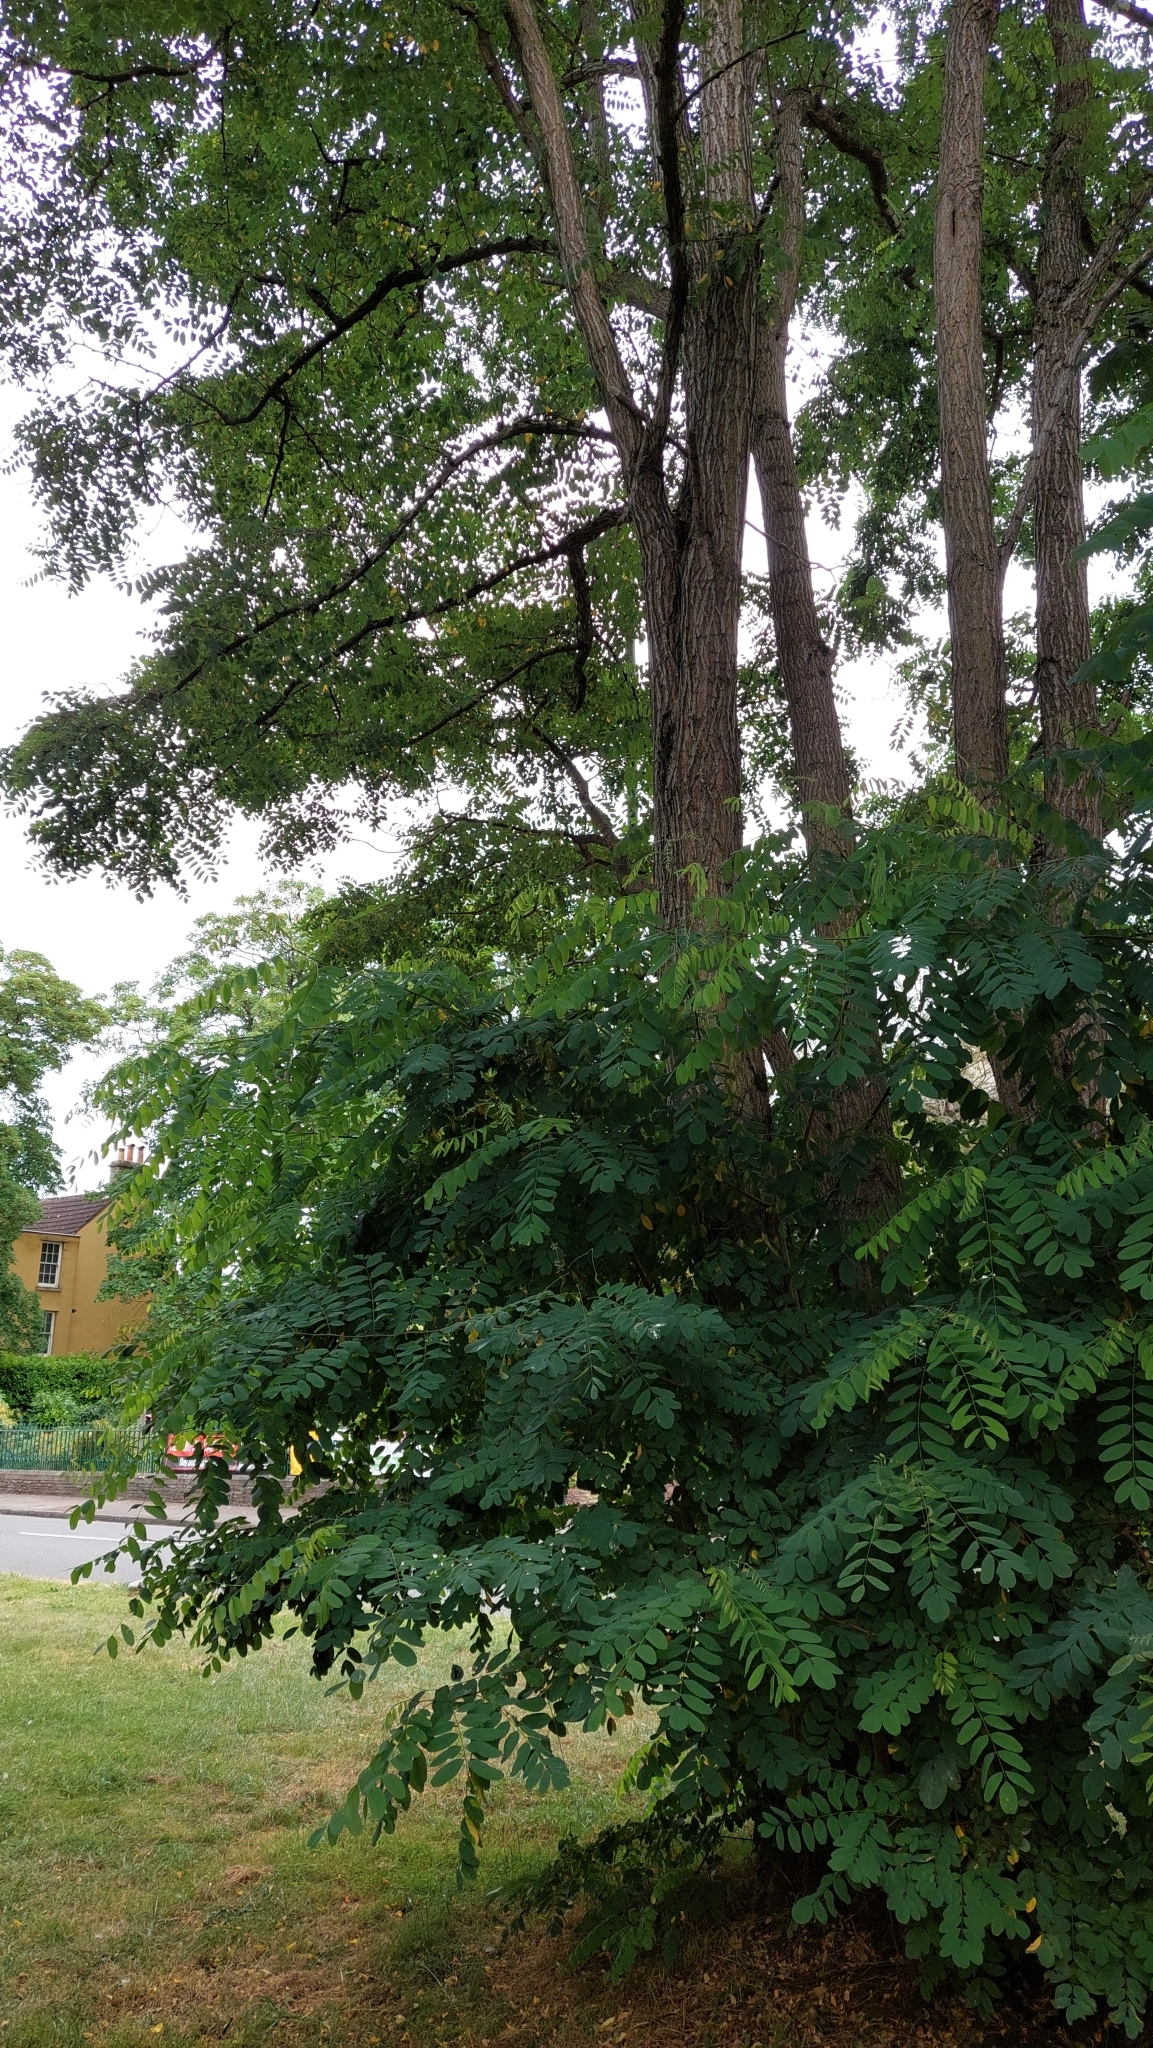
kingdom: Plantae
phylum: Tracheophyta
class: Magnoliopsida
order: Fabales
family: Fabaceae
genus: Robinia
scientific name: Robinia pseudoacacia
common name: Black locust
